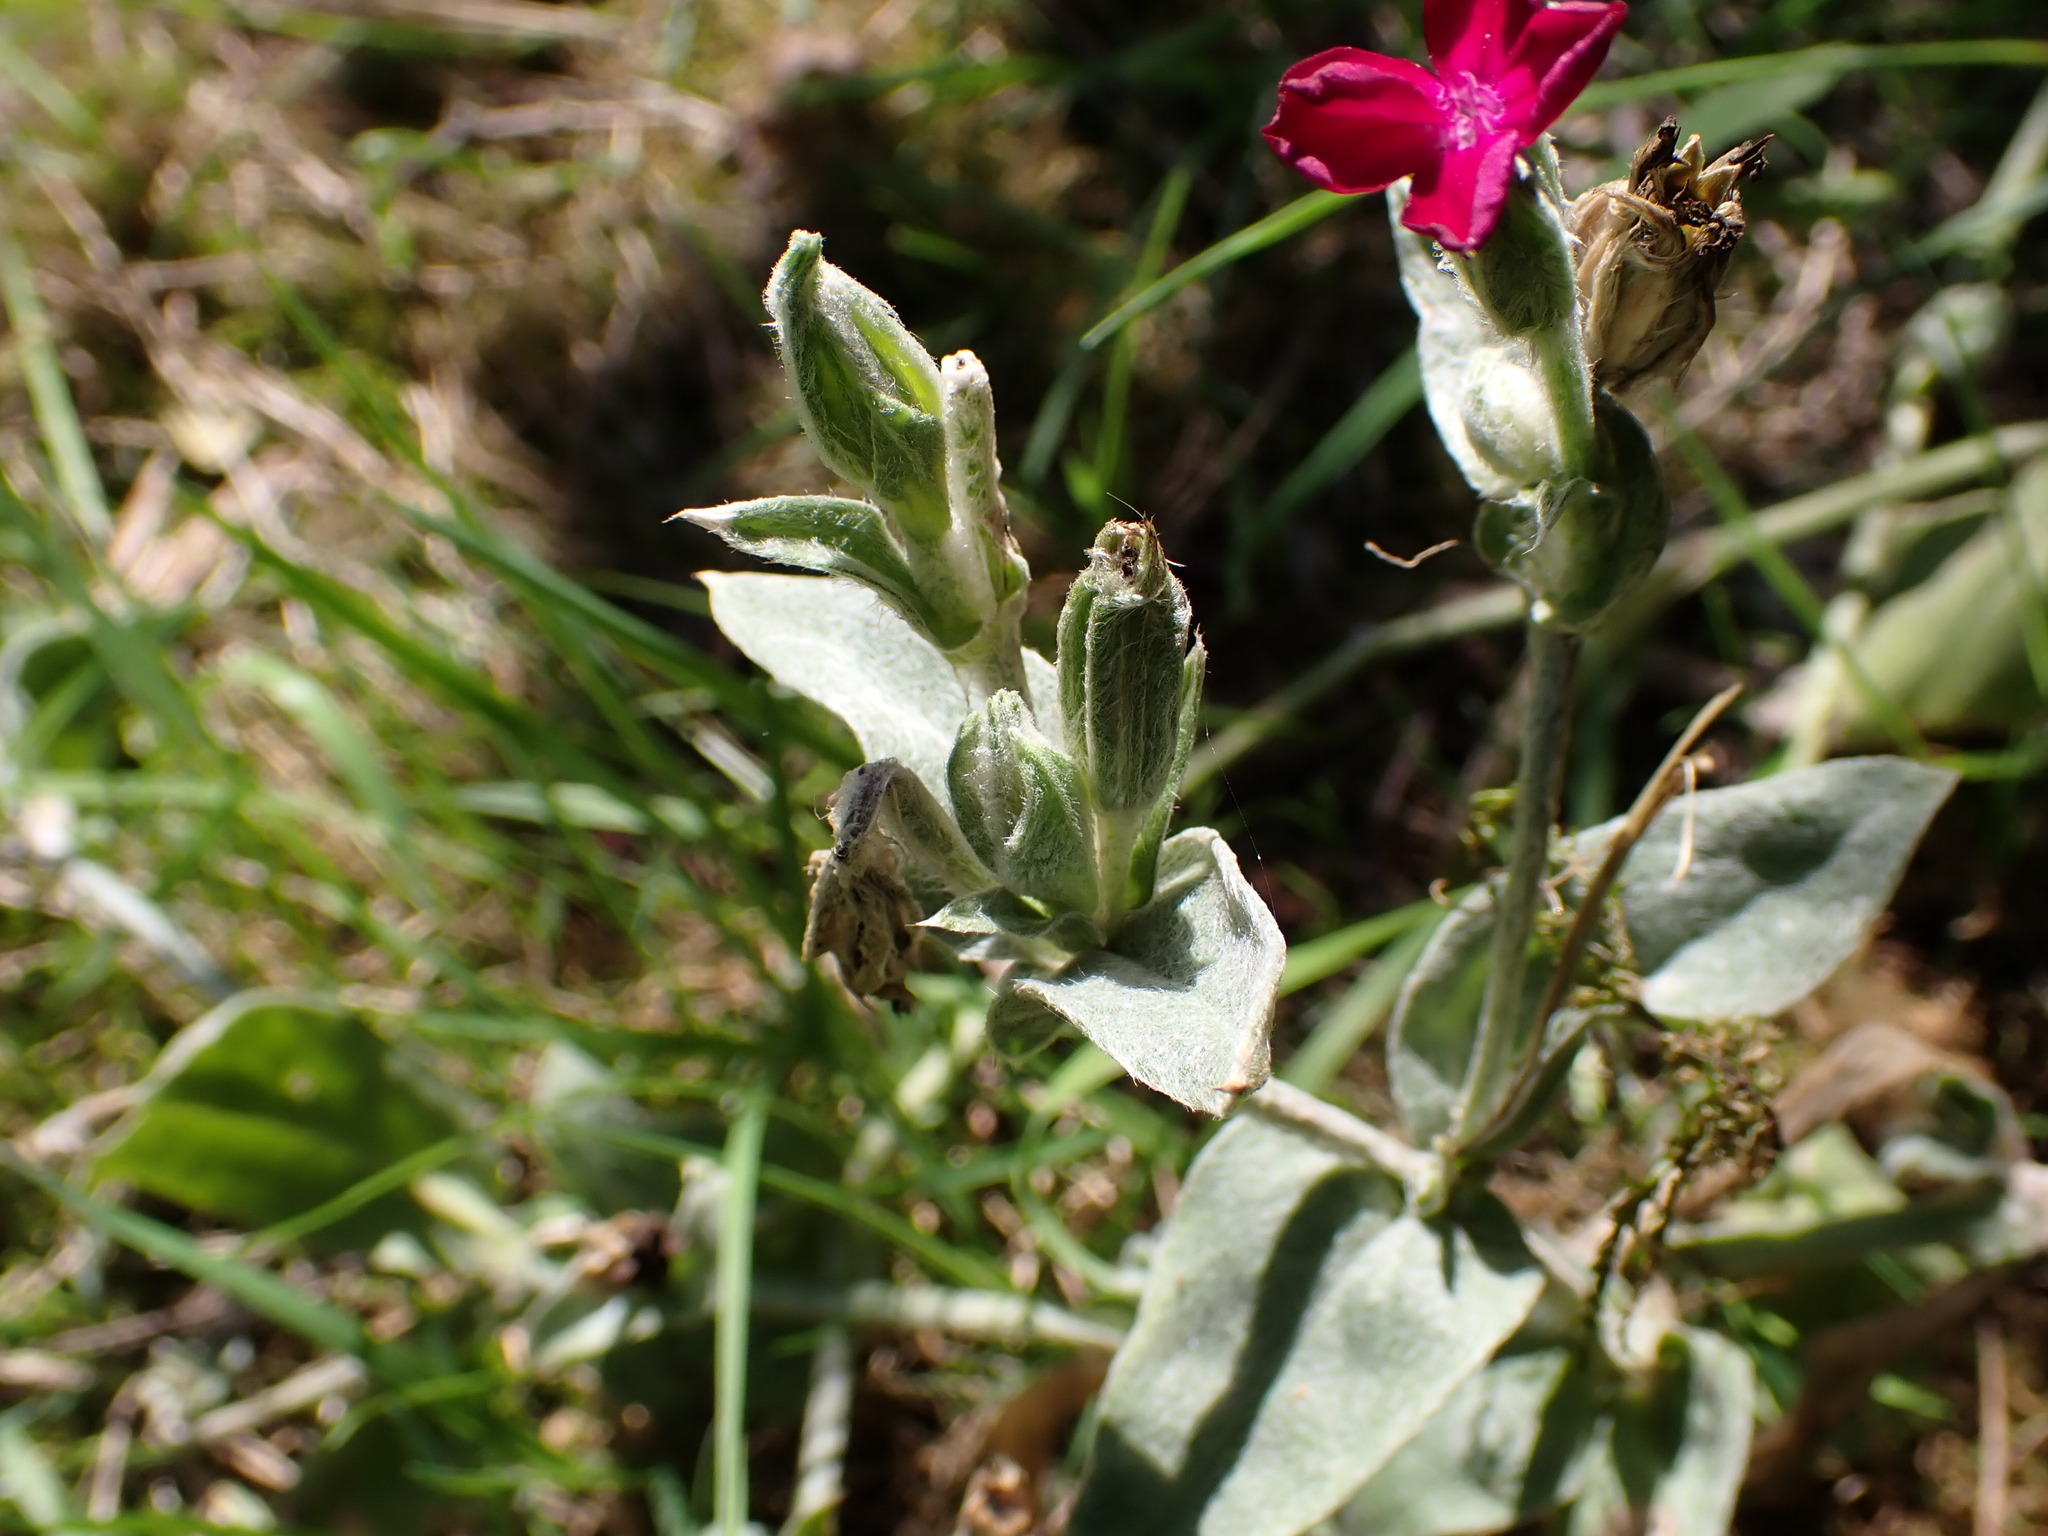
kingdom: Plantae
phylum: Tracheophyta
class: Magnoliopsida
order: Caryophyllales
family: Caryophyllaceae
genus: Silene
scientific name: Silene coronaria
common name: Rose campion
